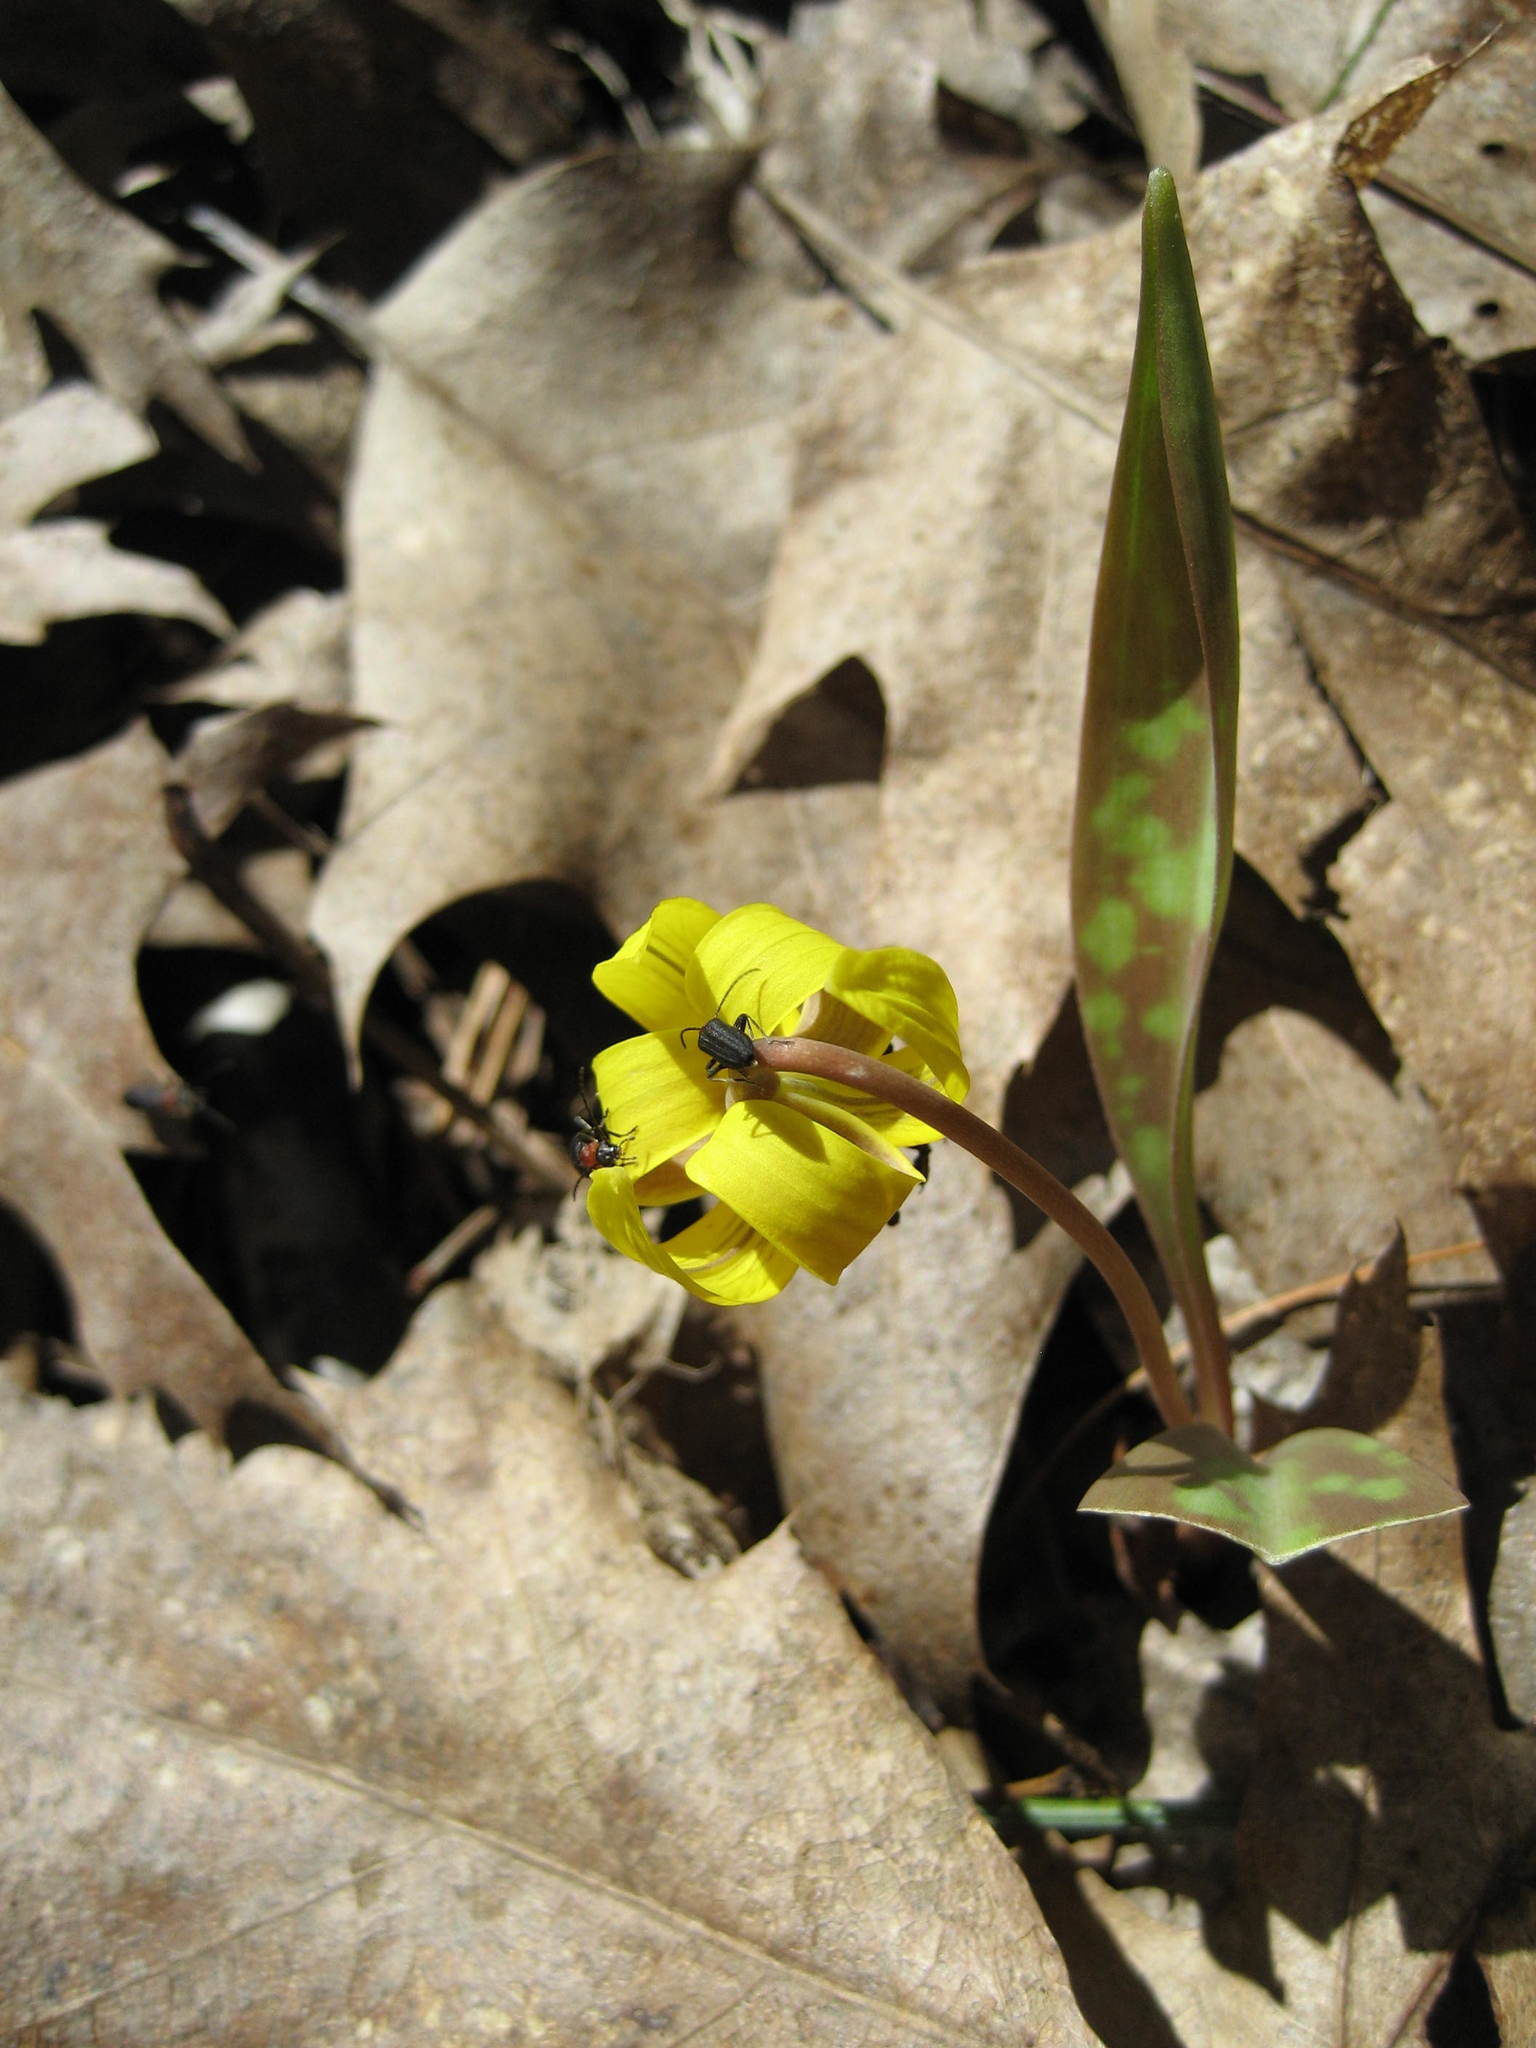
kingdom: Animalia
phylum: Arthropoda
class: Insecta
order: Coleoptera
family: Oedemeridae
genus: Ischnomera
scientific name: Ischnomera
